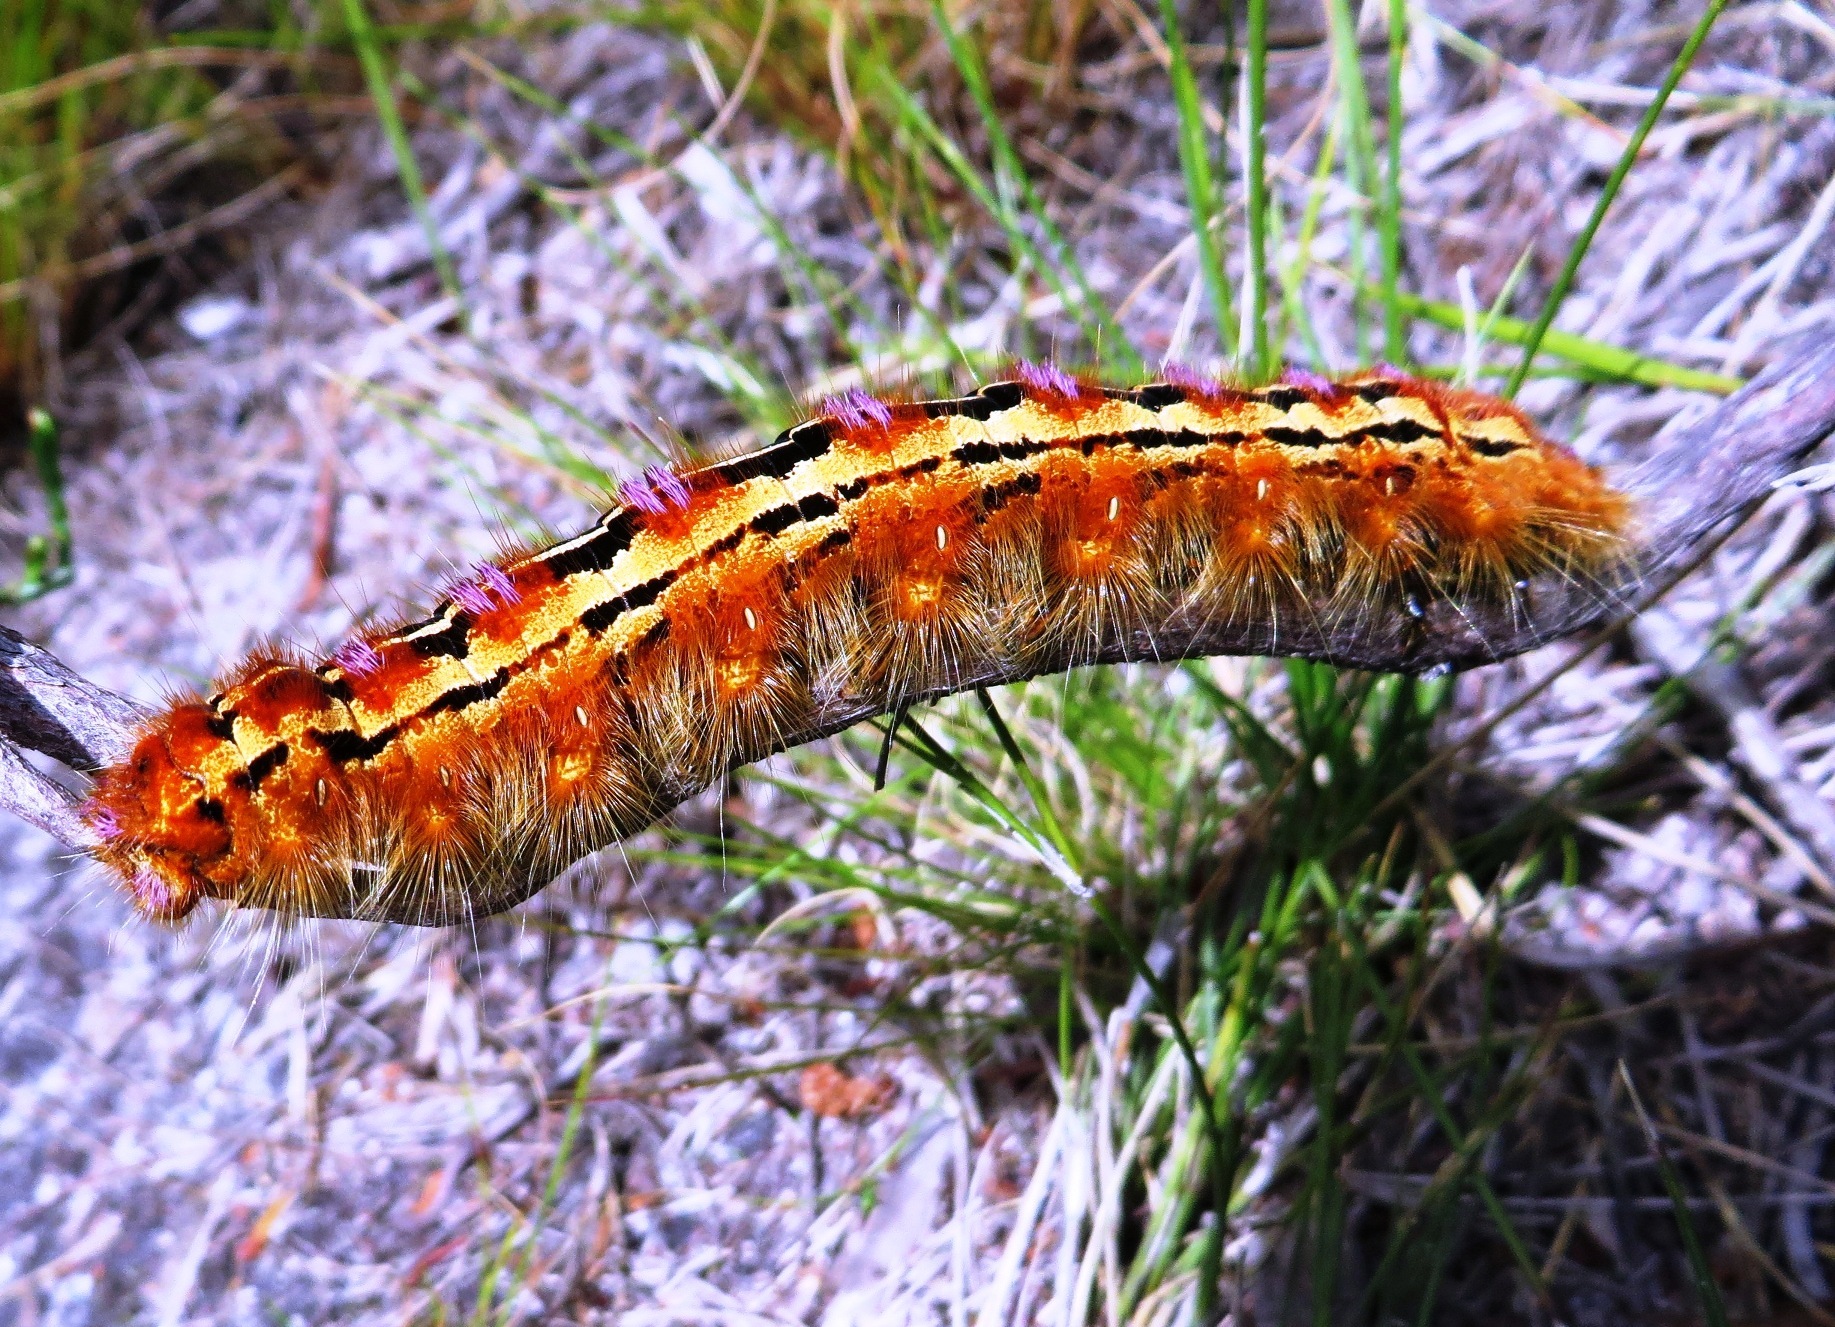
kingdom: Animalia
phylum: Arthropoda
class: Insecta
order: Lepidoptera
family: Lasiocampidae
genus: Eutricha
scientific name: Eutricha bifascia
